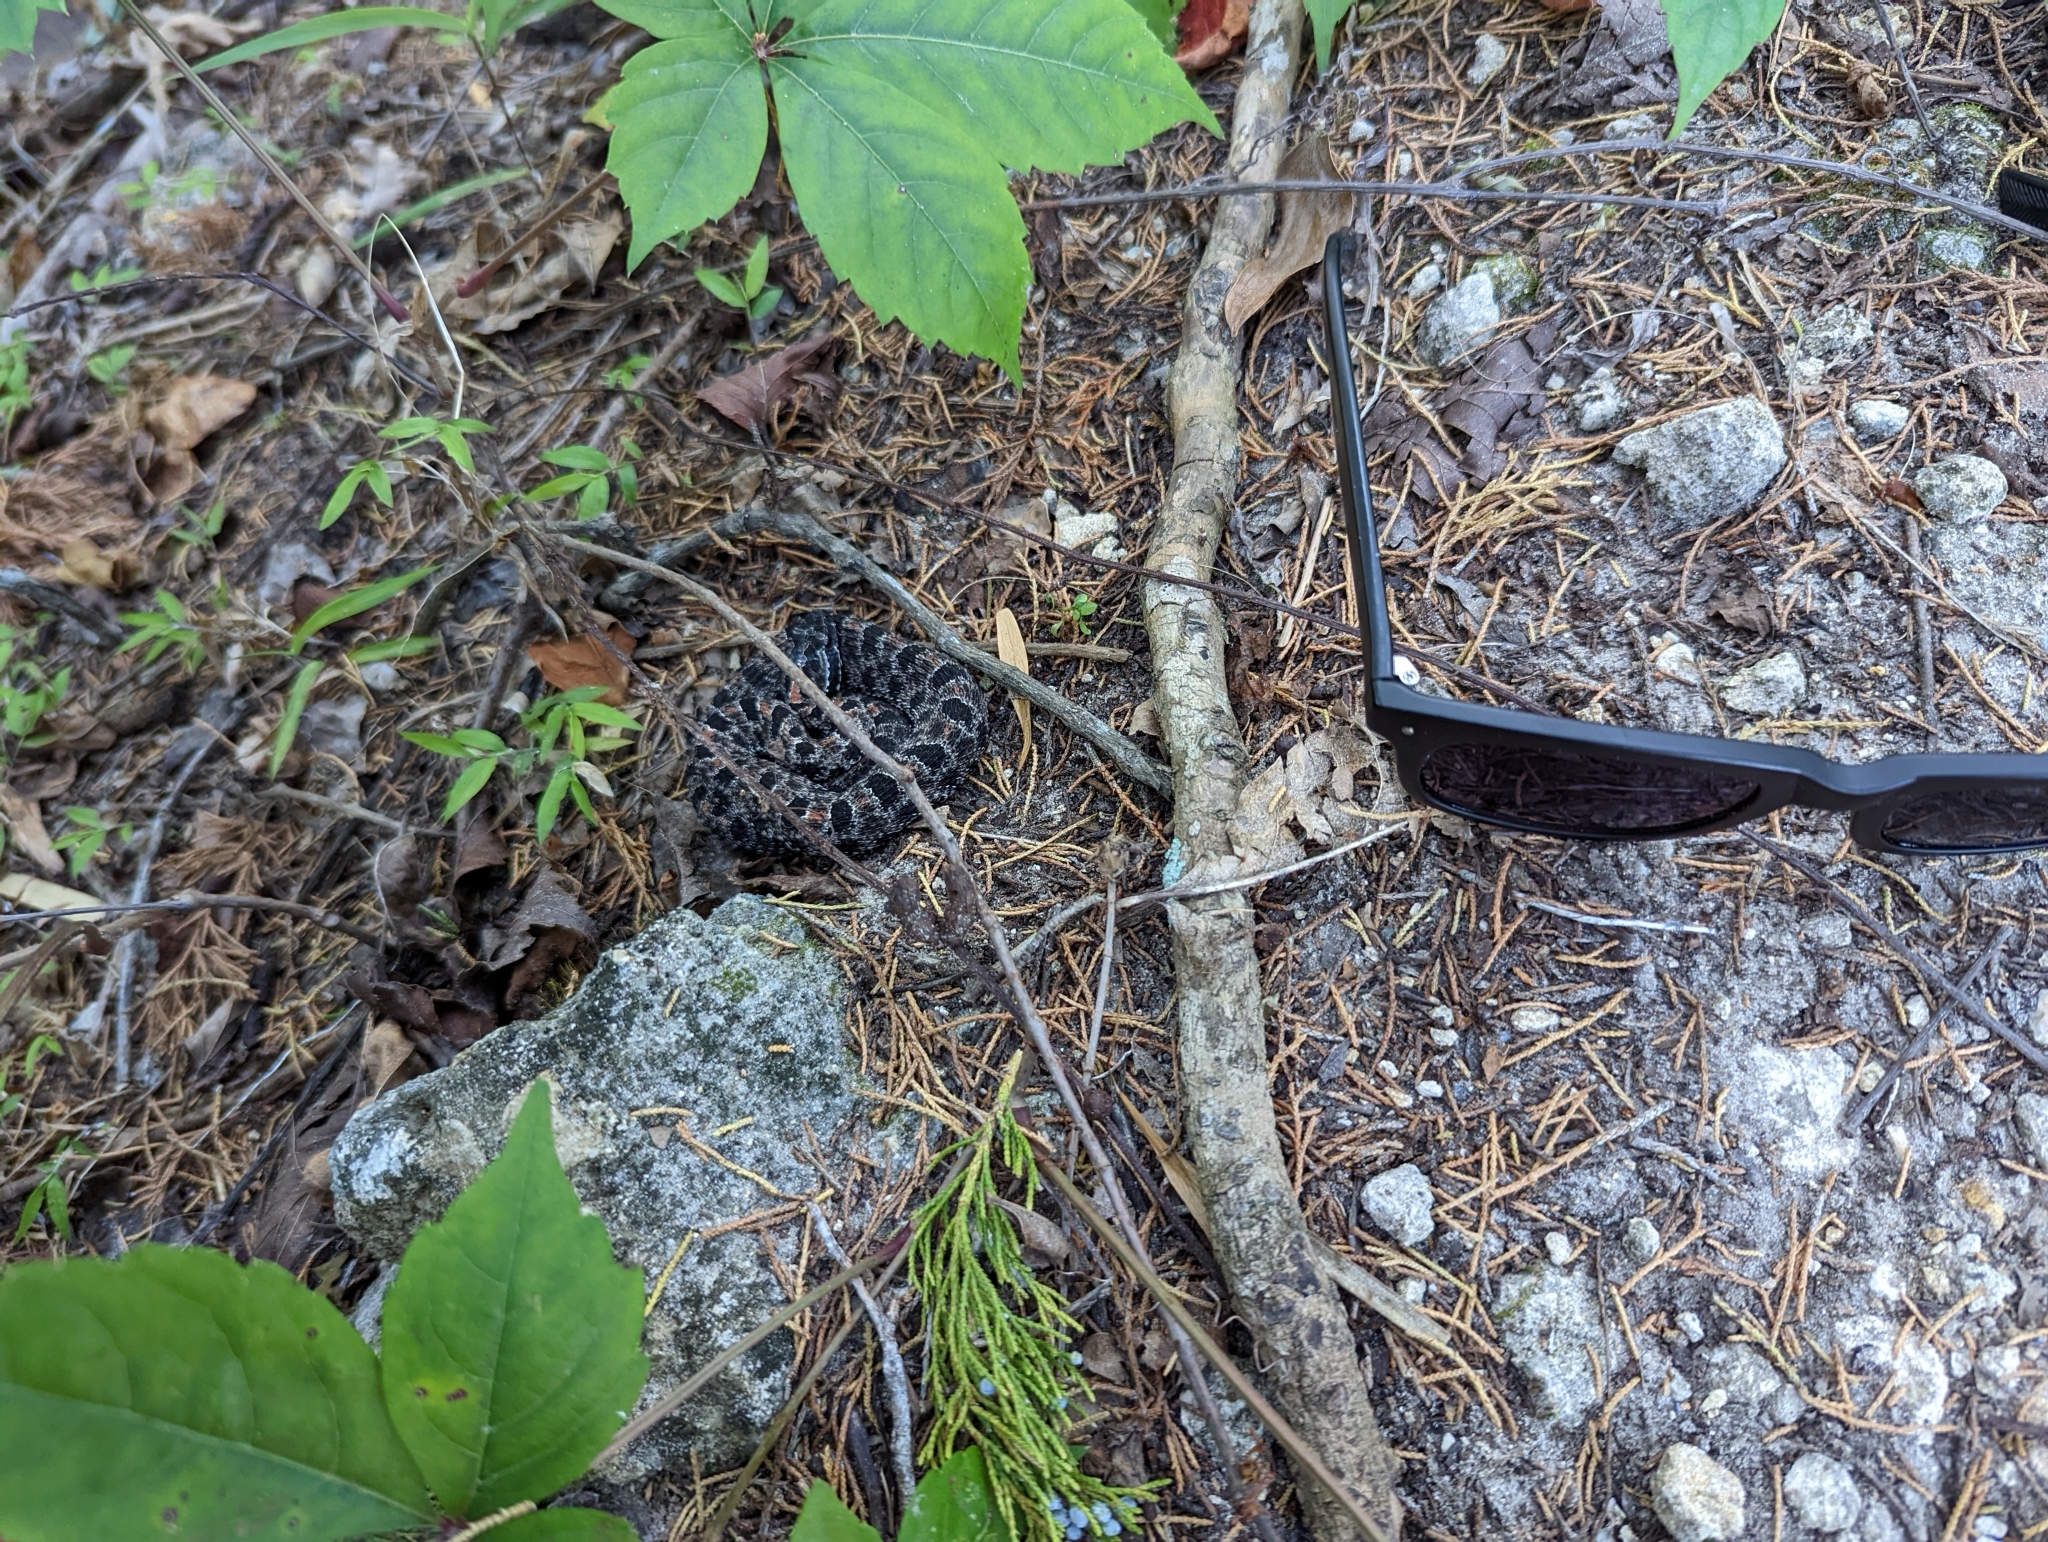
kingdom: Animalia
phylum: Chordata
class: Squamata
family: Viperidae
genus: Sistrurus
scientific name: Sistrurus miliarius
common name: Pygmy rattlesnake
